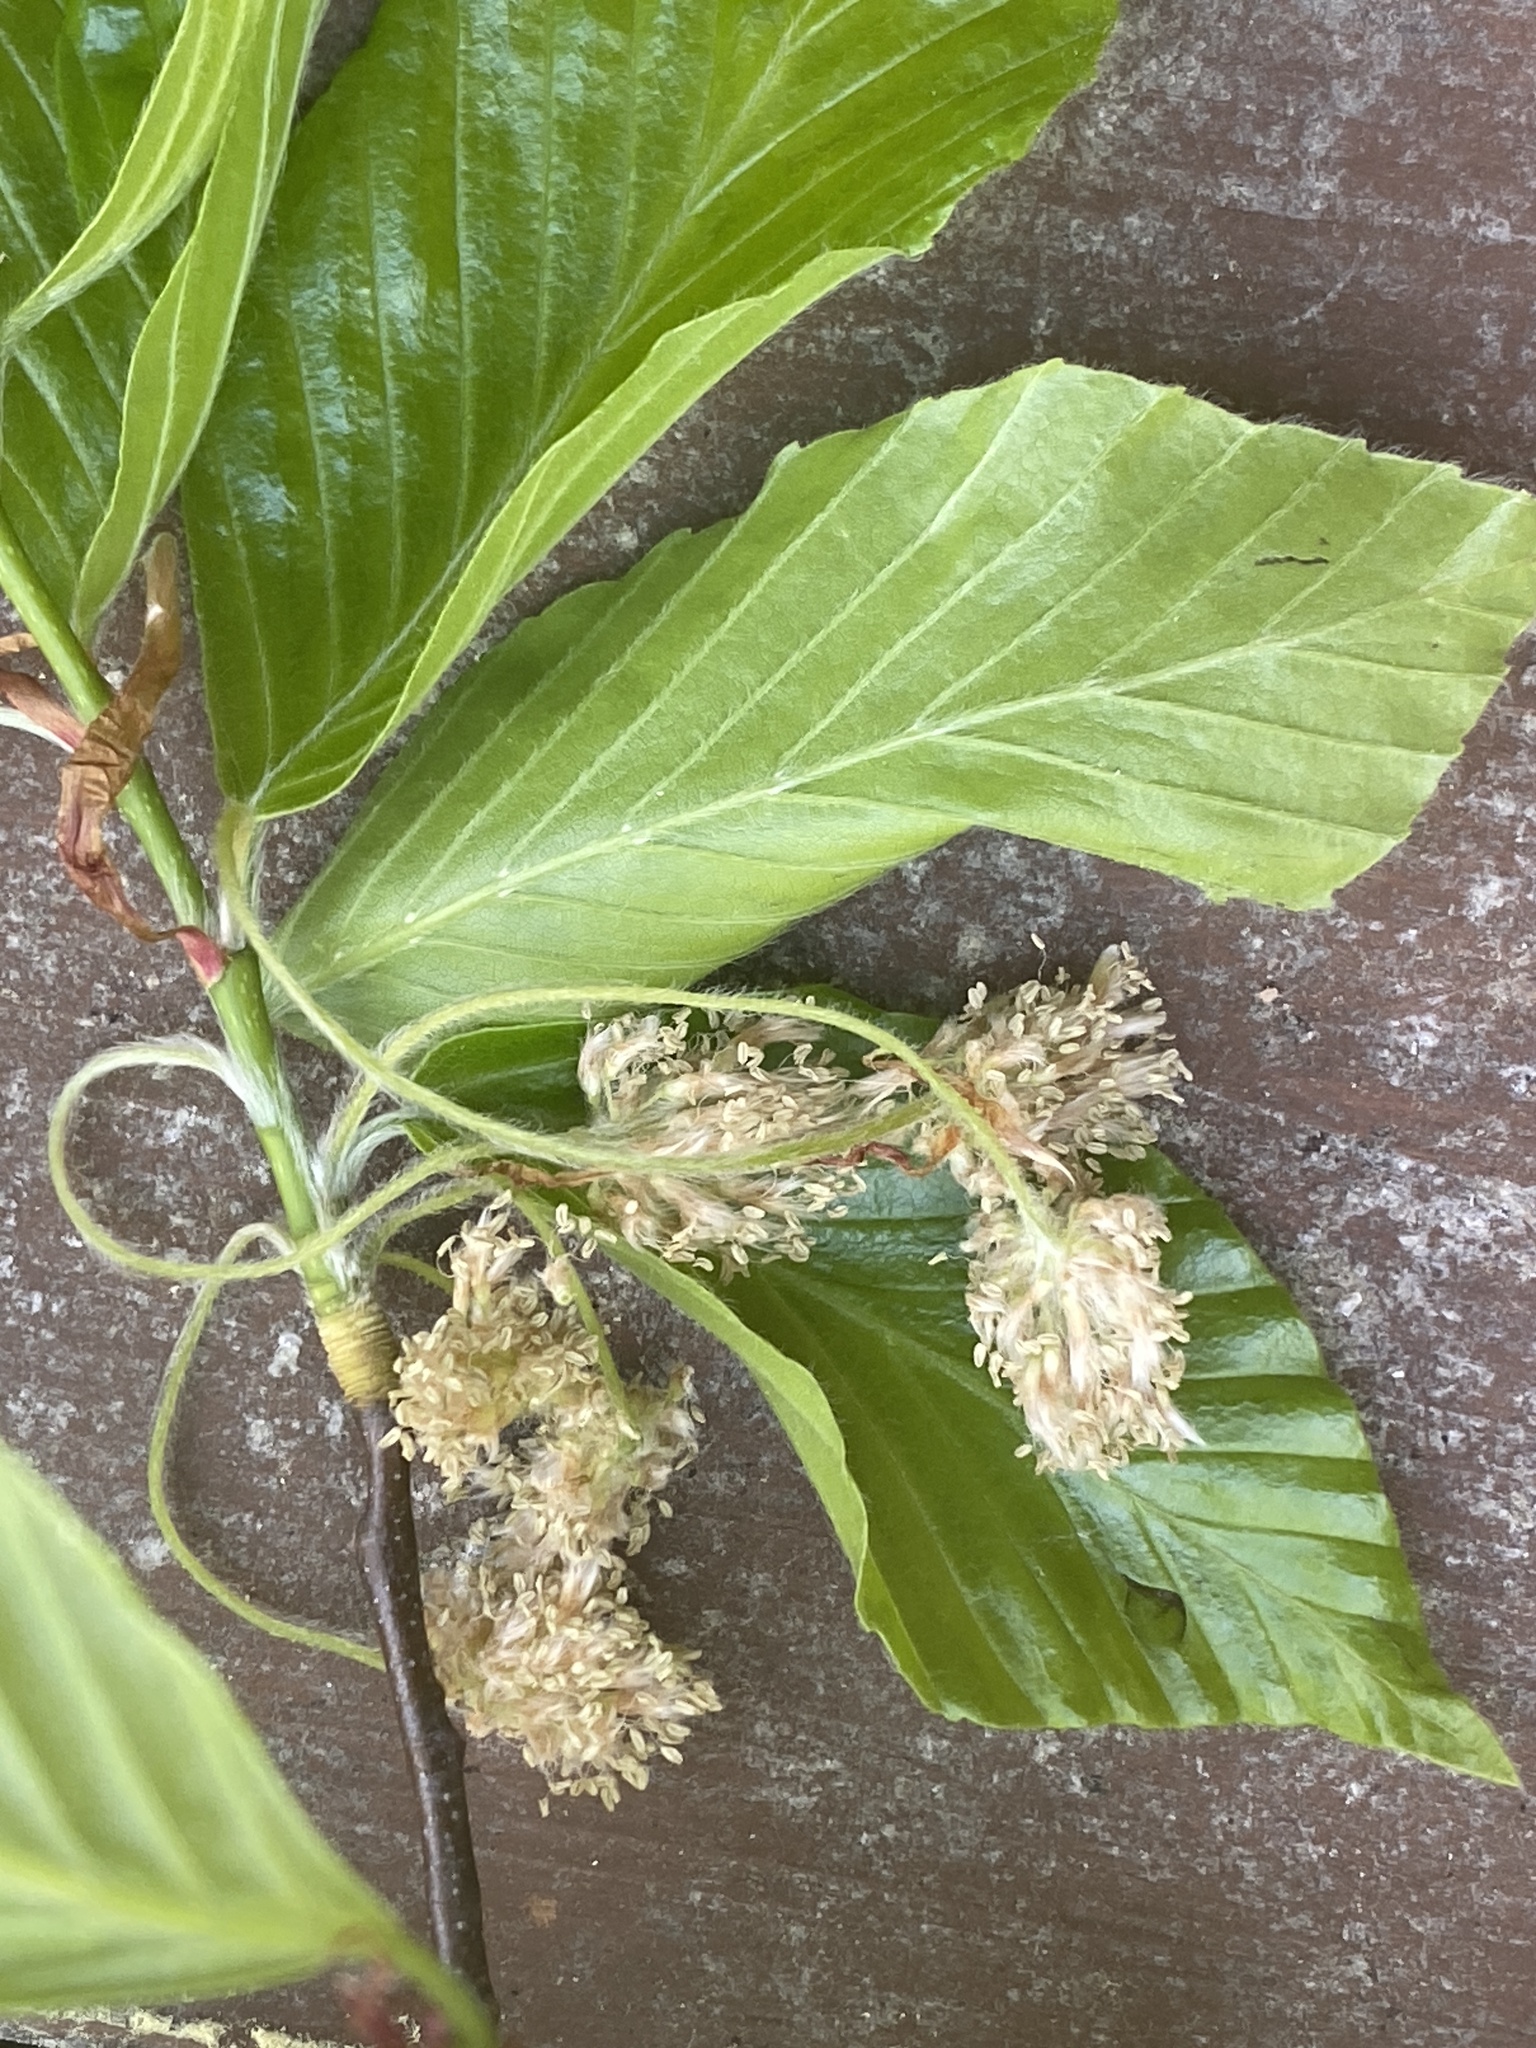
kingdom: Plantae
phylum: Tracheophyta
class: Magnoliopsida
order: Fagales
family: Fagaceae
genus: Fagus
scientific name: Fagus grandifolia
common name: American beech
